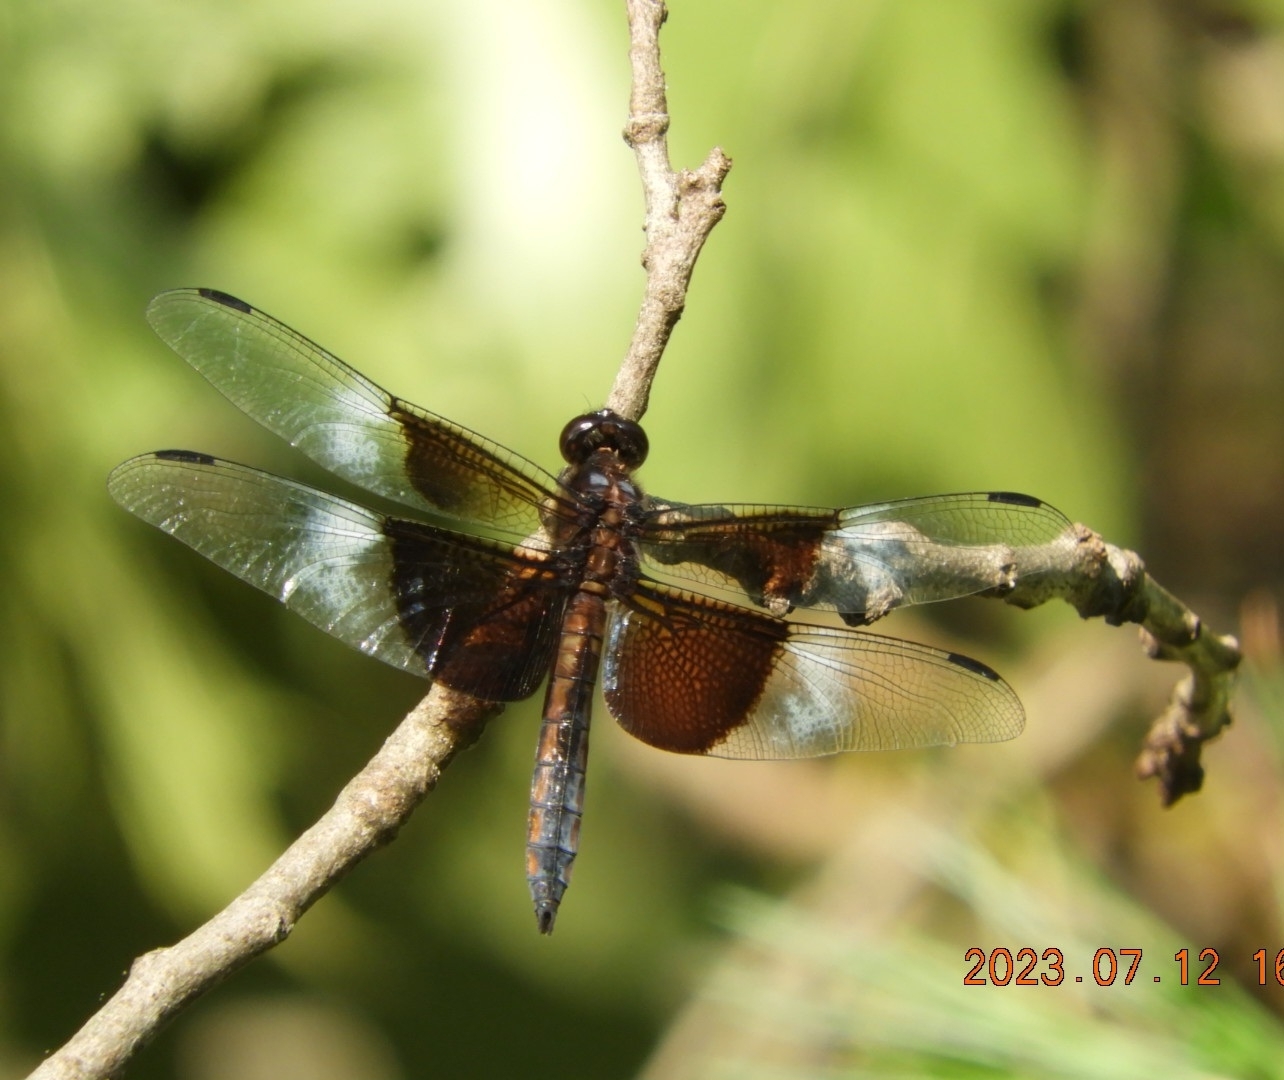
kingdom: Animalia
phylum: Arthropoda
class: Insecta
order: Odonata
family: Libellulidae
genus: Libellula
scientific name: Libellula luctuosa
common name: Widow skimmer
